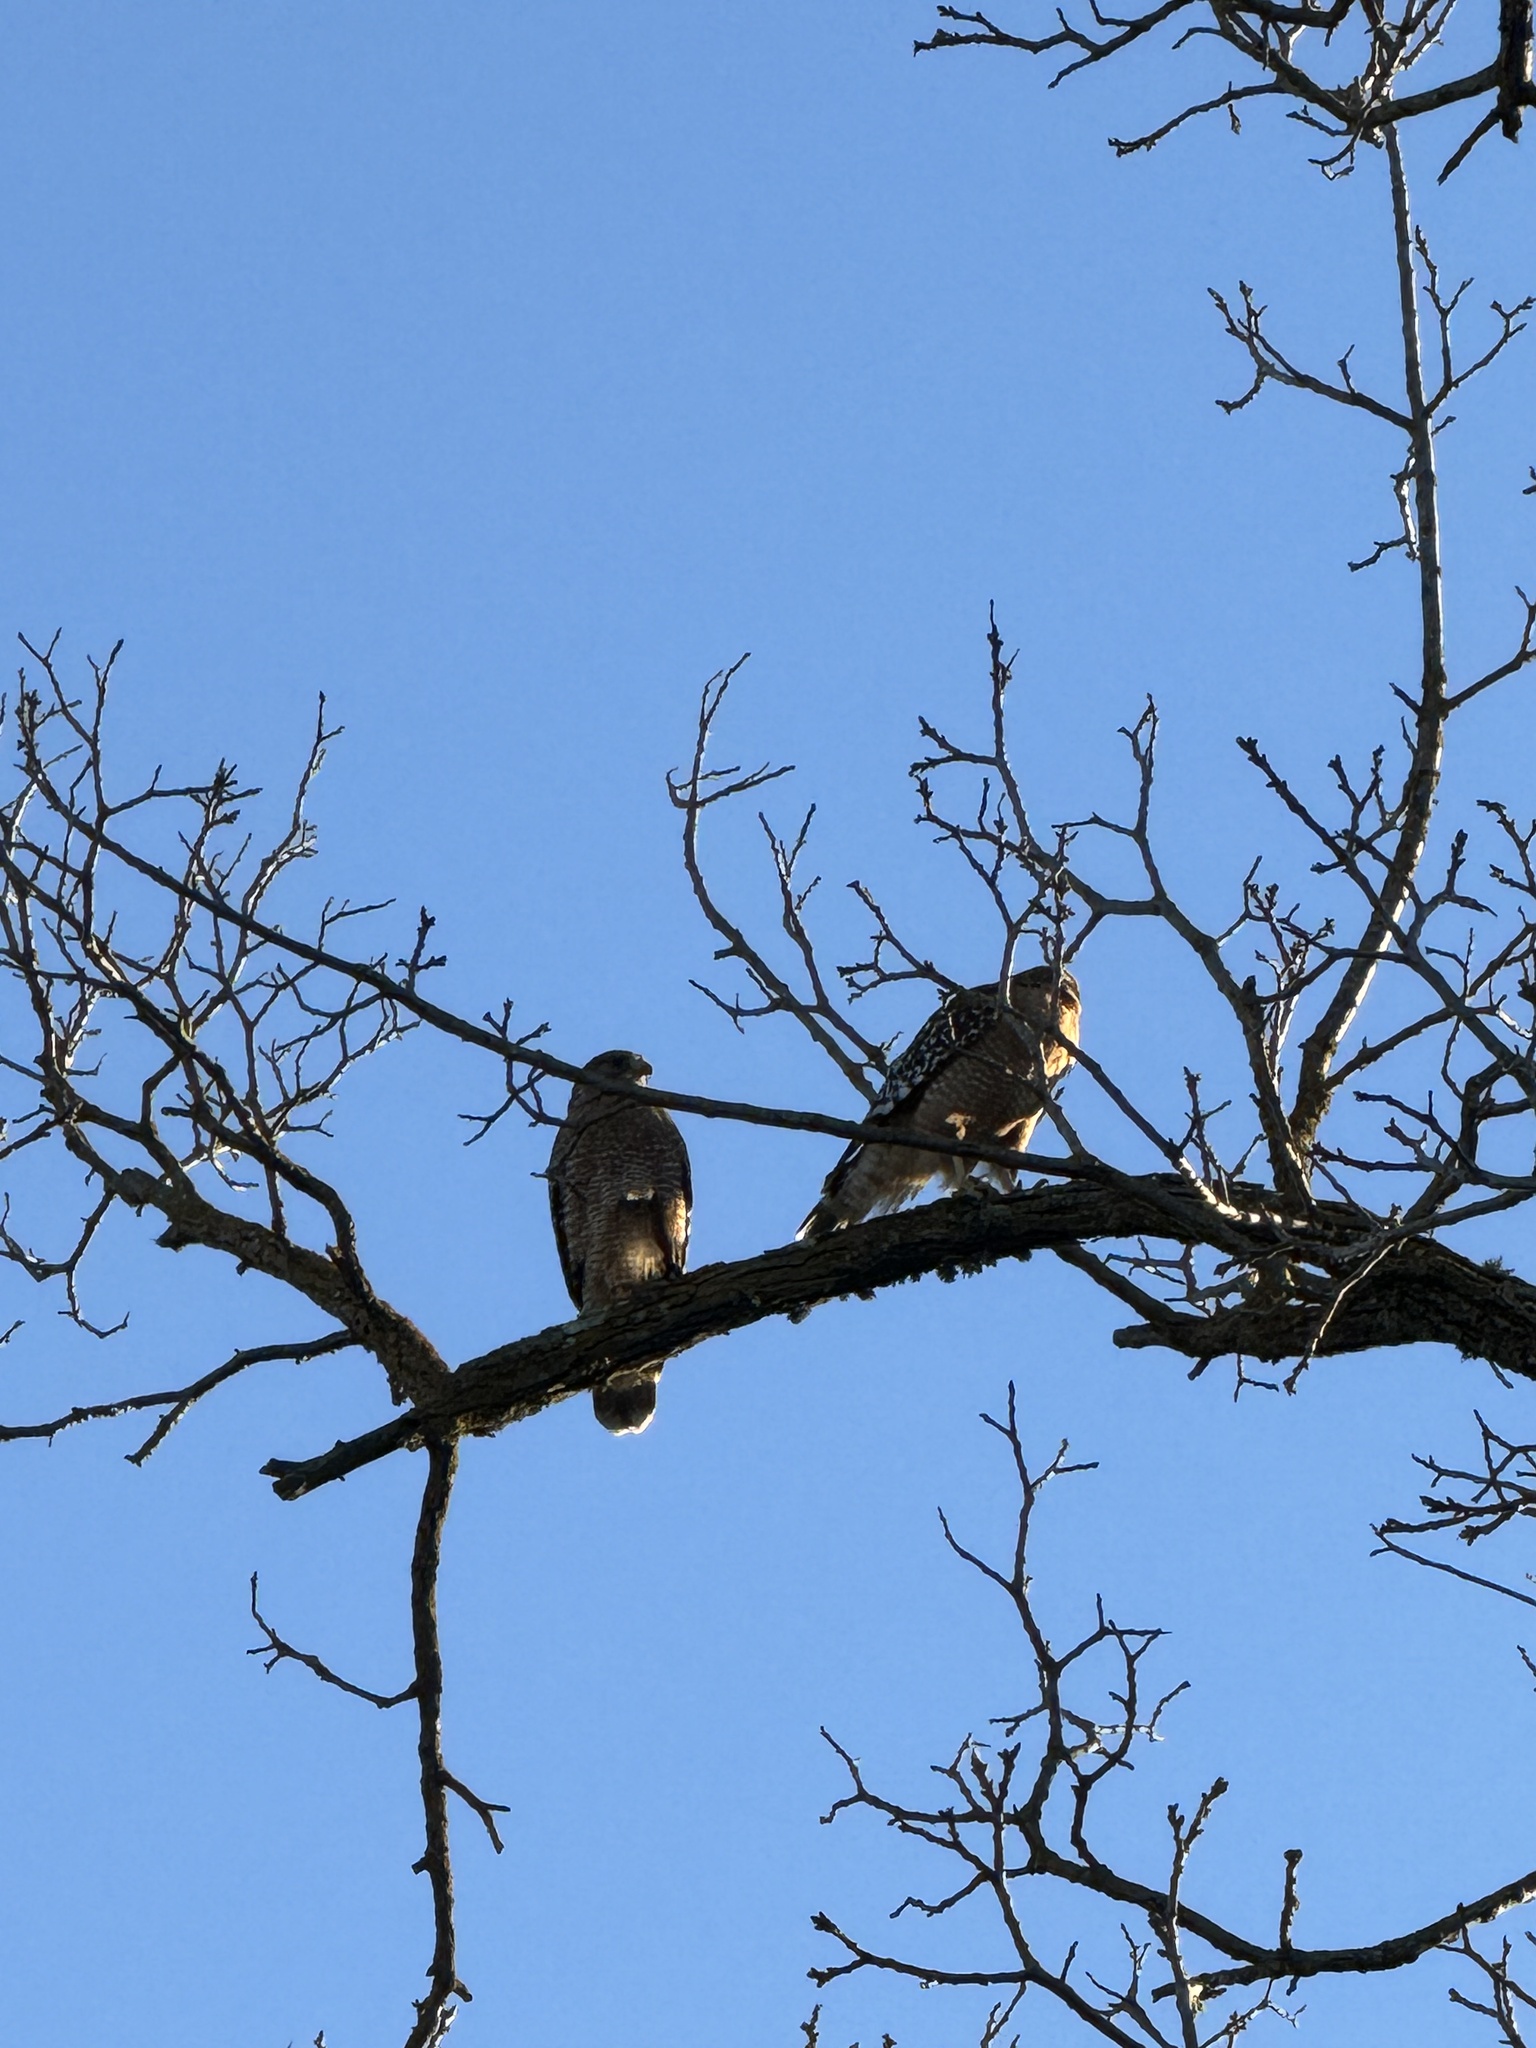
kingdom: Animalia
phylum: Chordata
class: Aves
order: Accipitriformes
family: Accipitridae
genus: Buteo
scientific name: Buteo lineatus
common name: Red-shouldered hawk
